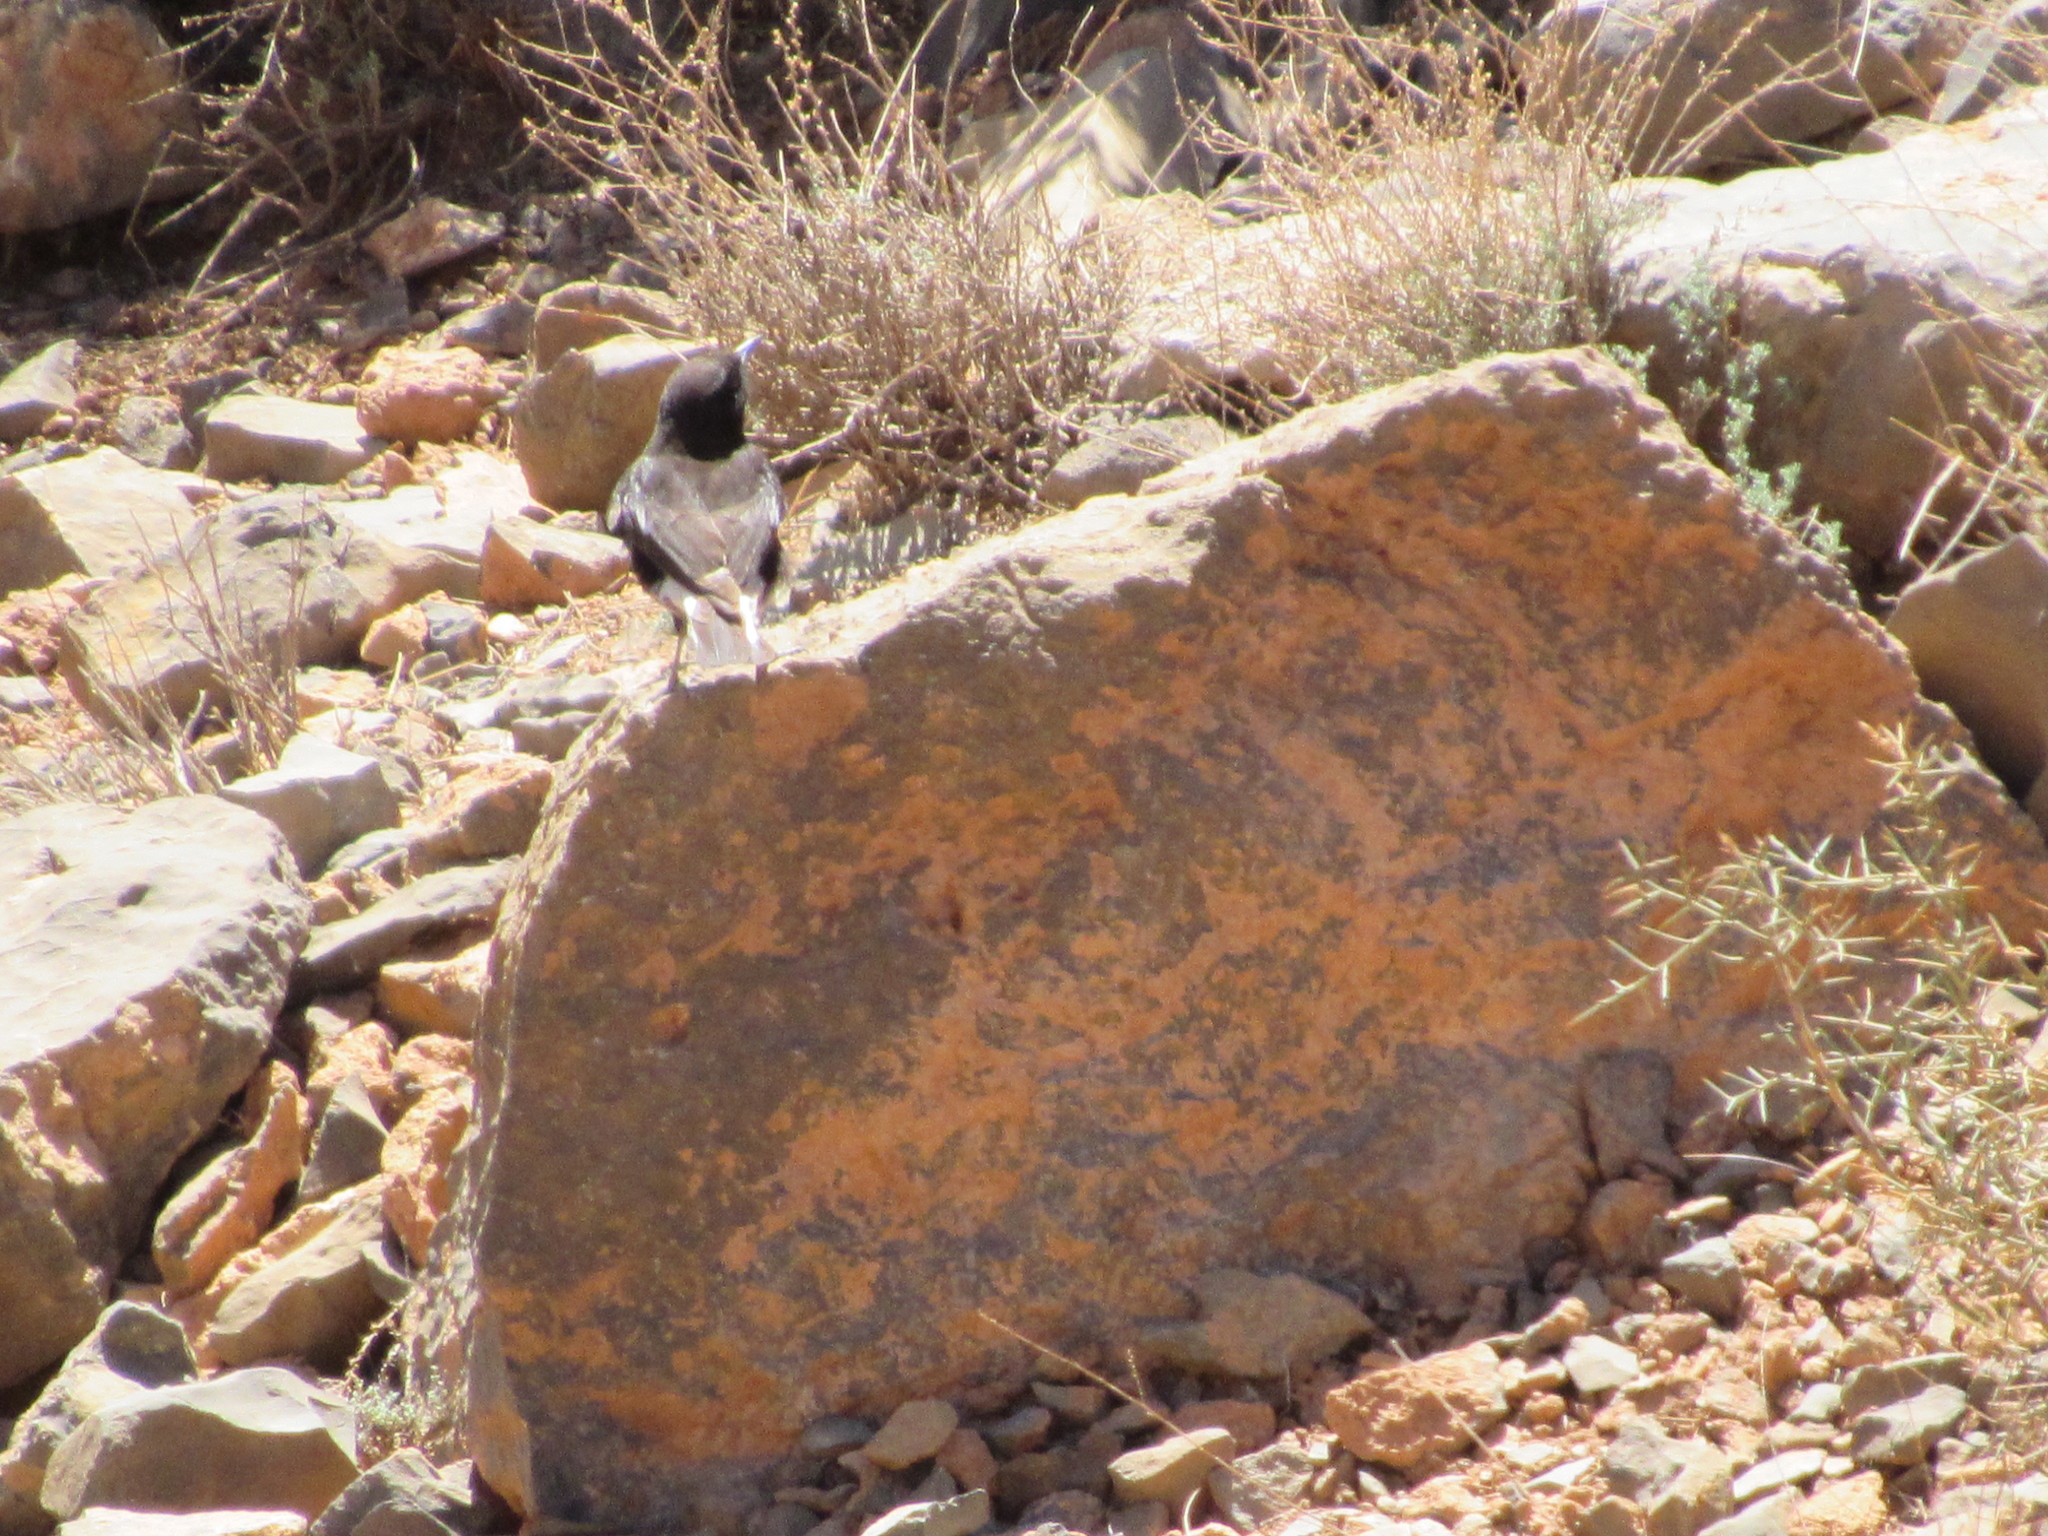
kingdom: Animalia
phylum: Chordata
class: Aves
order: Passeriformes
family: Muscicapidae
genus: Oenanthe
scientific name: Oenanthe leucura
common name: Black wheatear
